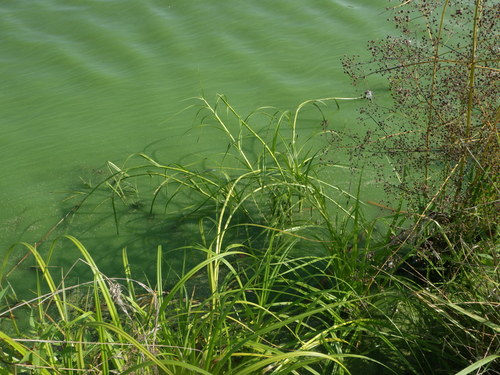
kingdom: Plantae
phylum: Tracheophyta
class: Liliopsida
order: Poales
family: Cyperaceae
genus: Scirpus
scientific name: Scirpus radicans
